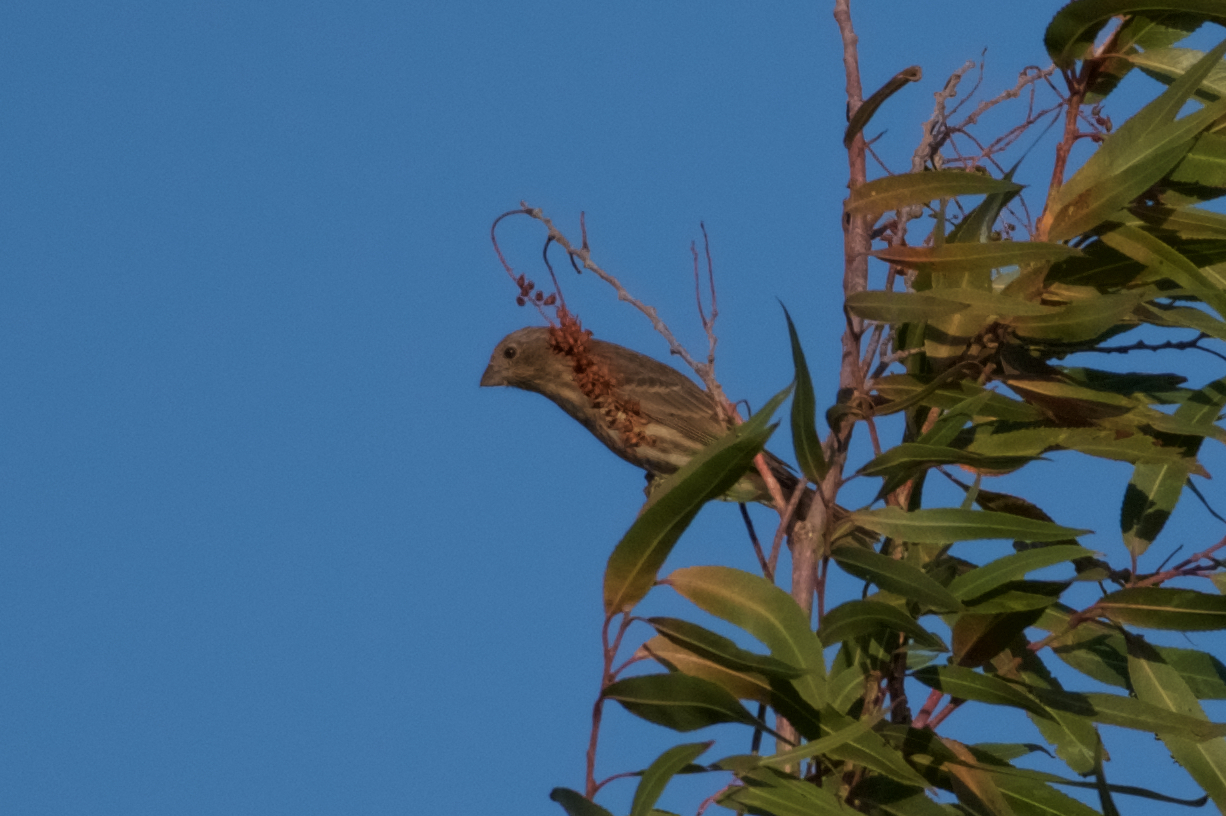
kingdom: Animalia
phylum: Chordata
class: Aves
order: Passeriformes
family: Fringillidae
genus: Haemorhous
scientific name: Haemorhous mexicanus
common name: House finch
